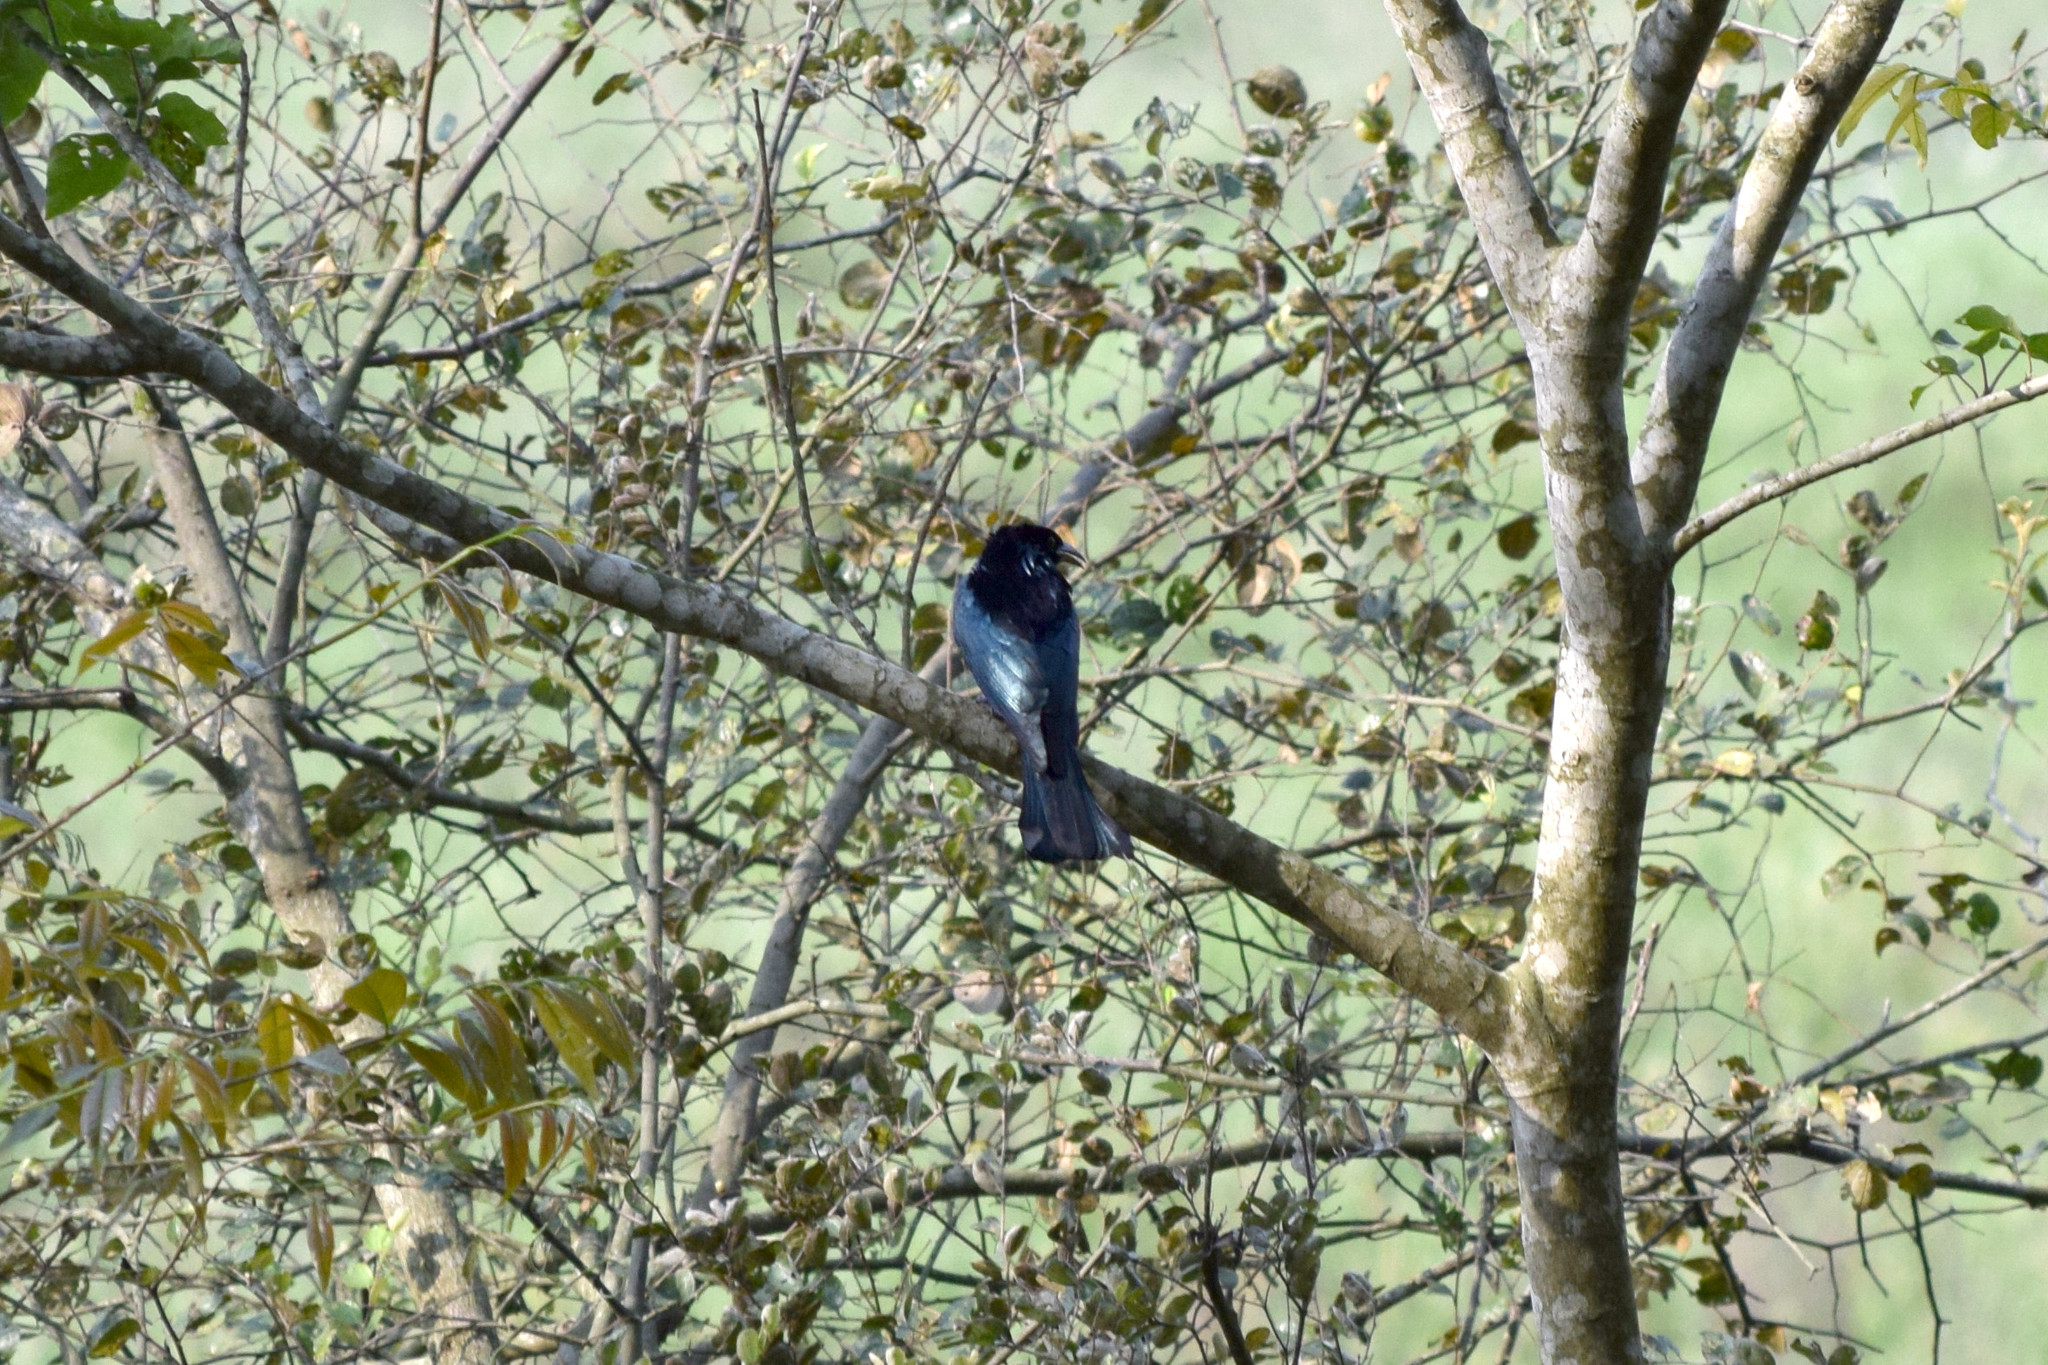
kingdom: Animalia
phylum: Chordata
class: Aves
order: Passeriformes
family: Dicruridae
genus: Dicrurus
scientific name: Dicrurus hottentottus
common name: Hair-crested drongo
